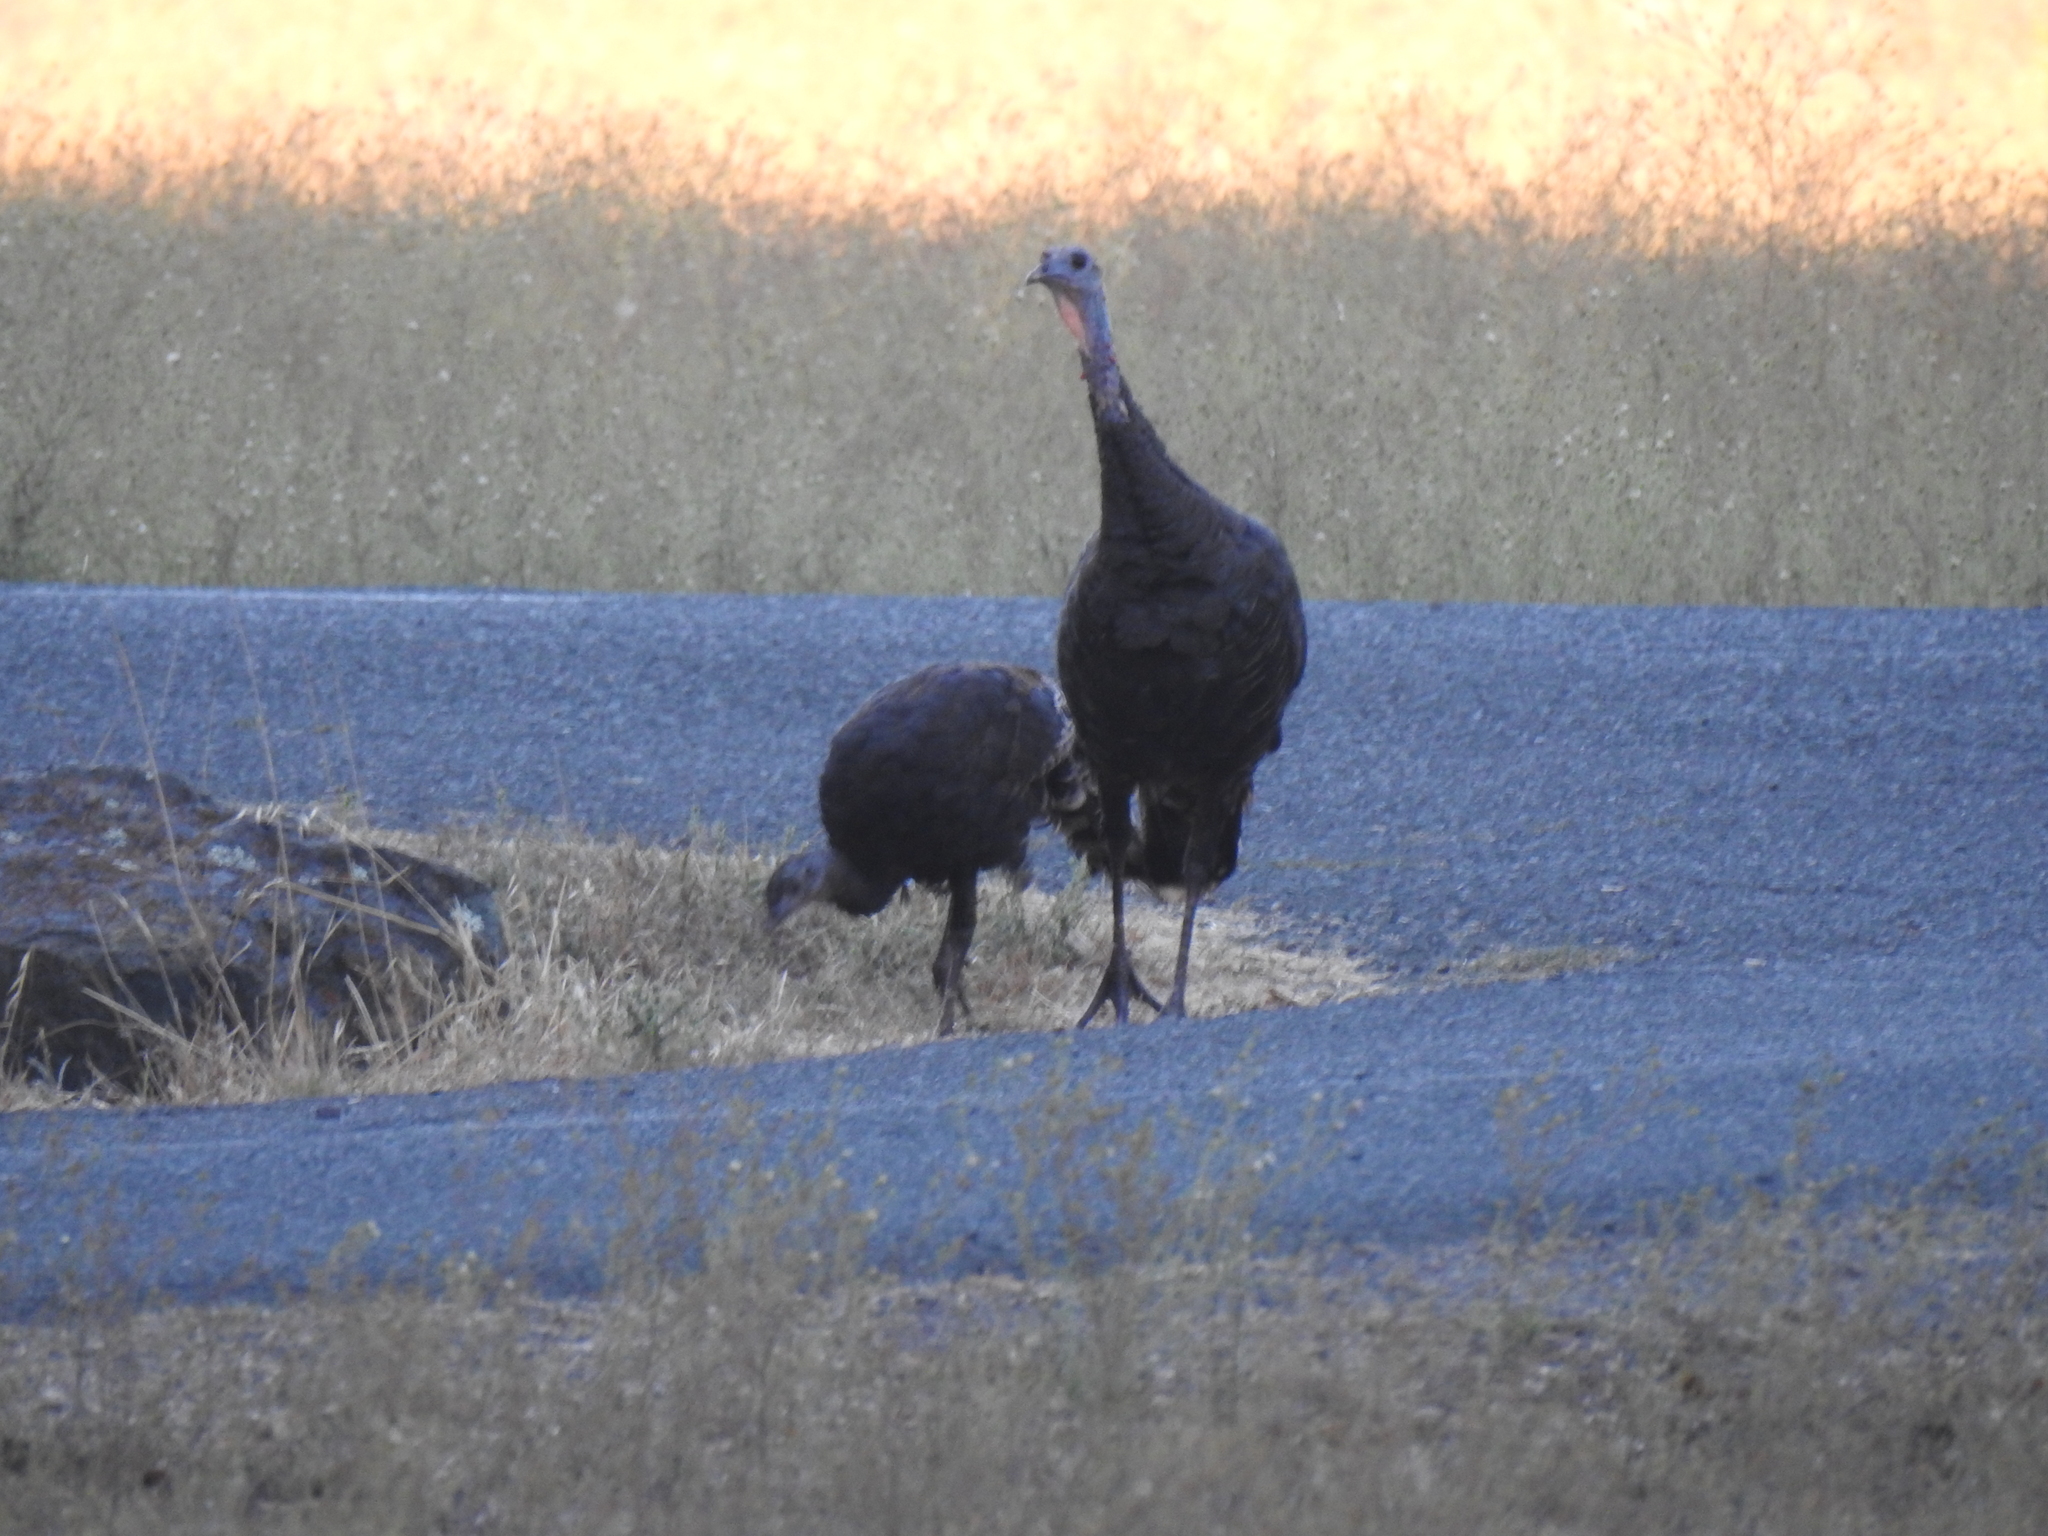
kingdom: Animalia
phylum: Chordata
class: Aves
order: Galliformes
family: Phasianidae
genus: Meleagris
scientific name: Meleagris gallopavo
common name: Wild turkey
